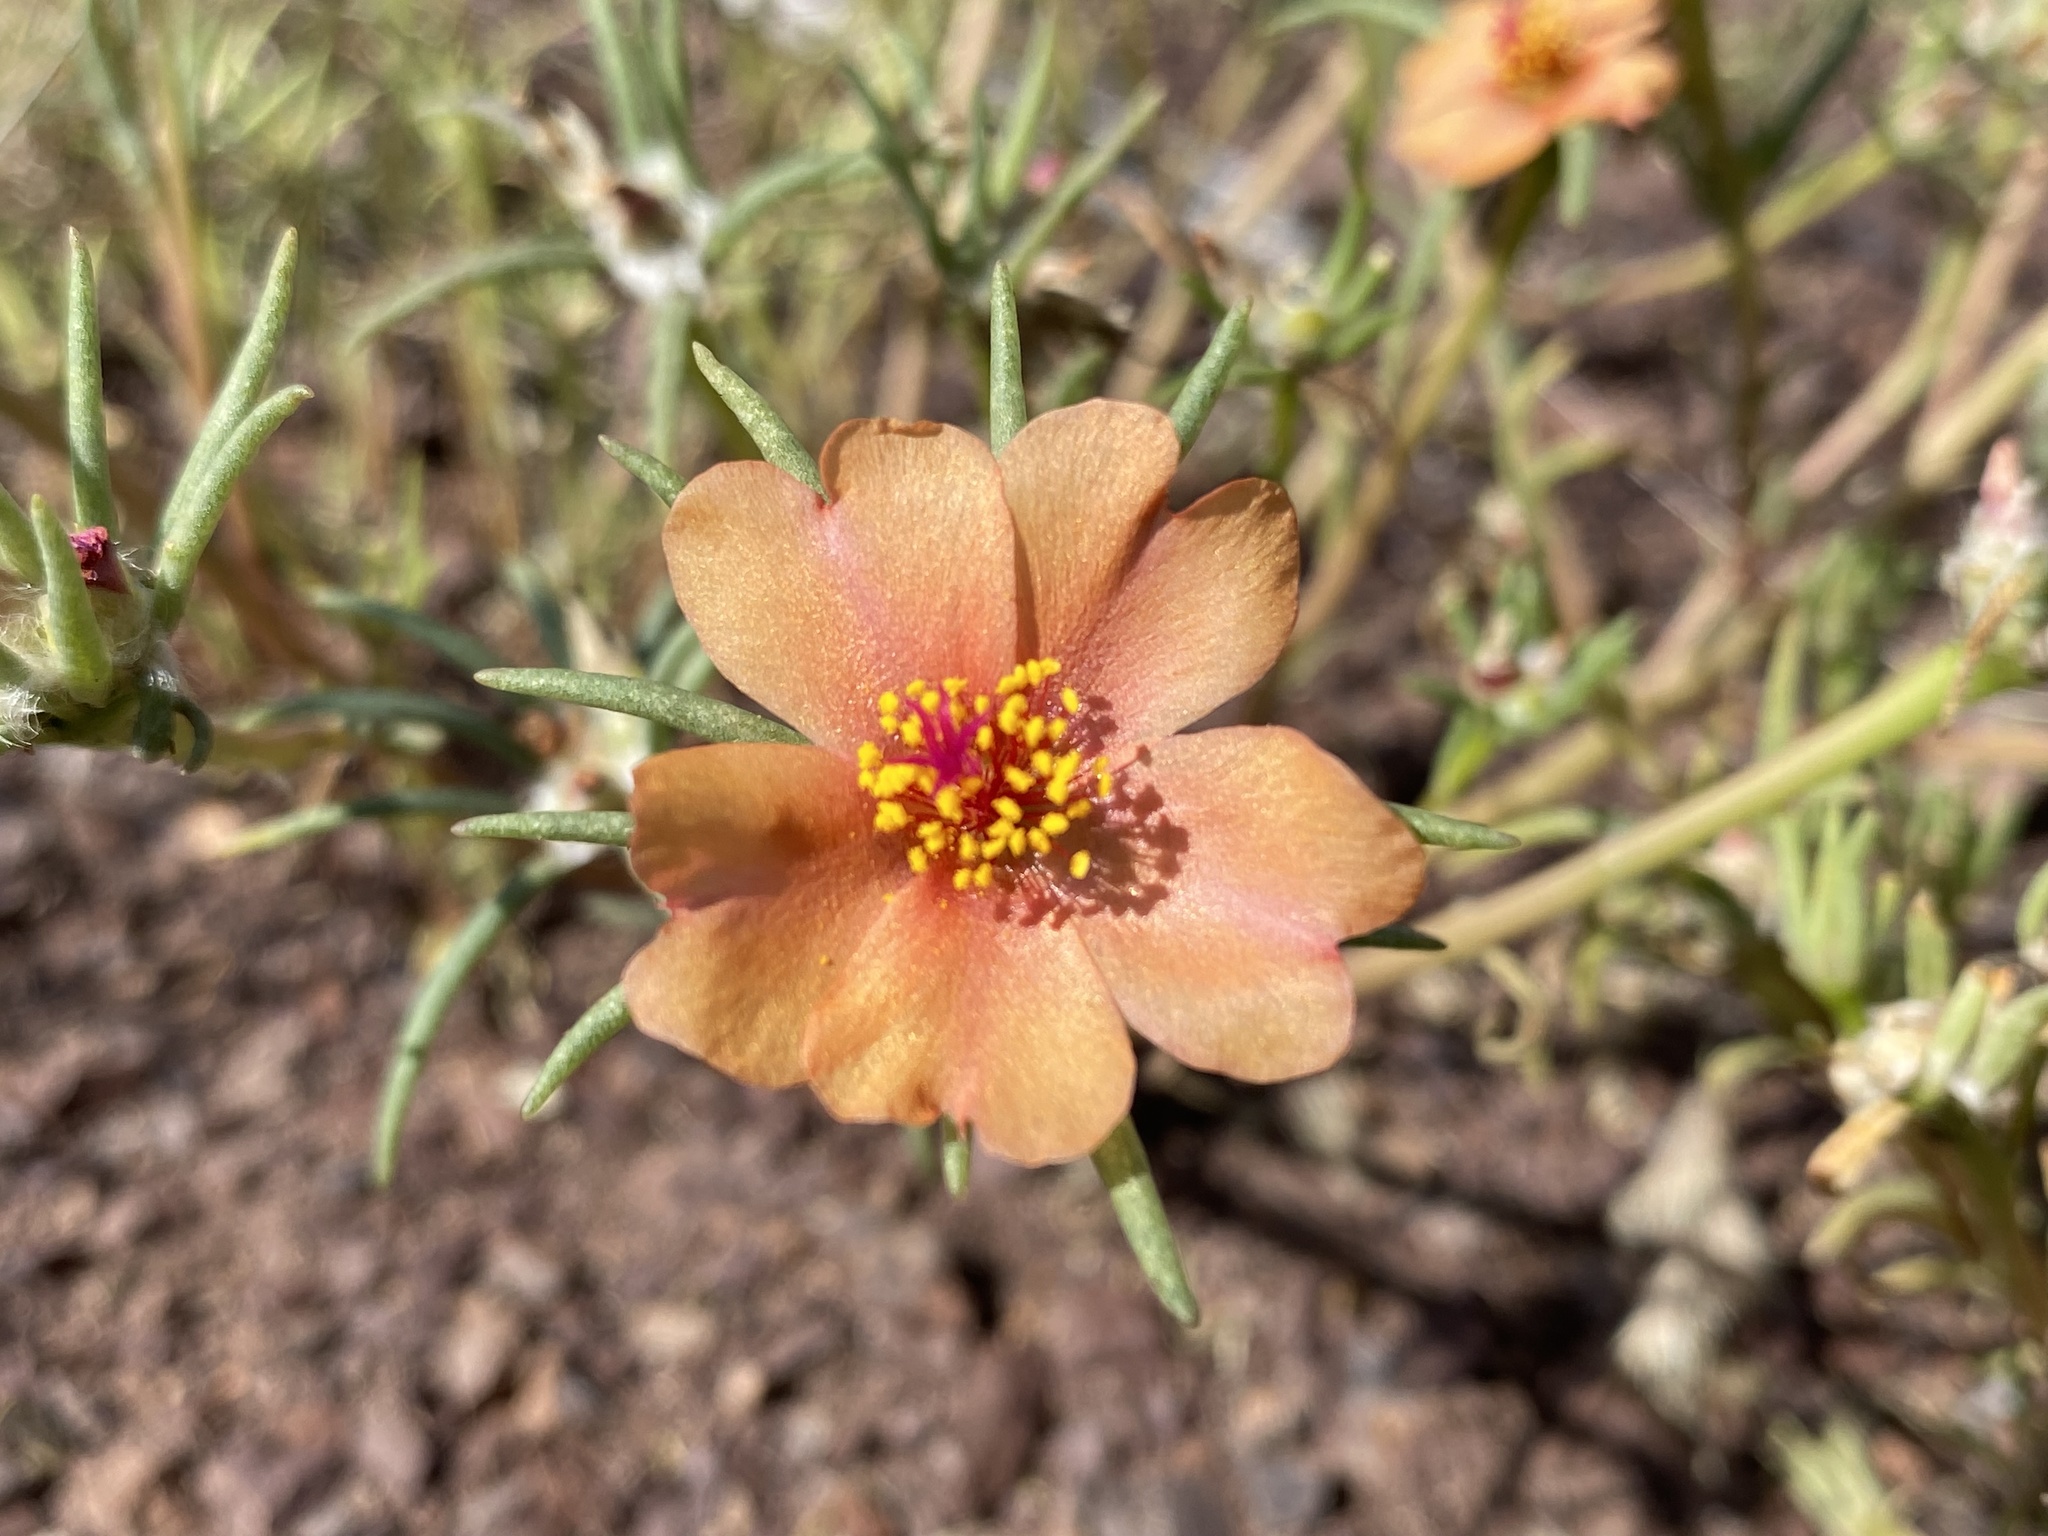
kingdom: Plantae
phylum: Tracheophyta
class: Magnoliopsida
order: Caryophyllales
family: Portulacaceae
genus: Portulaca
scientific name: Portulaca suffrutescens
